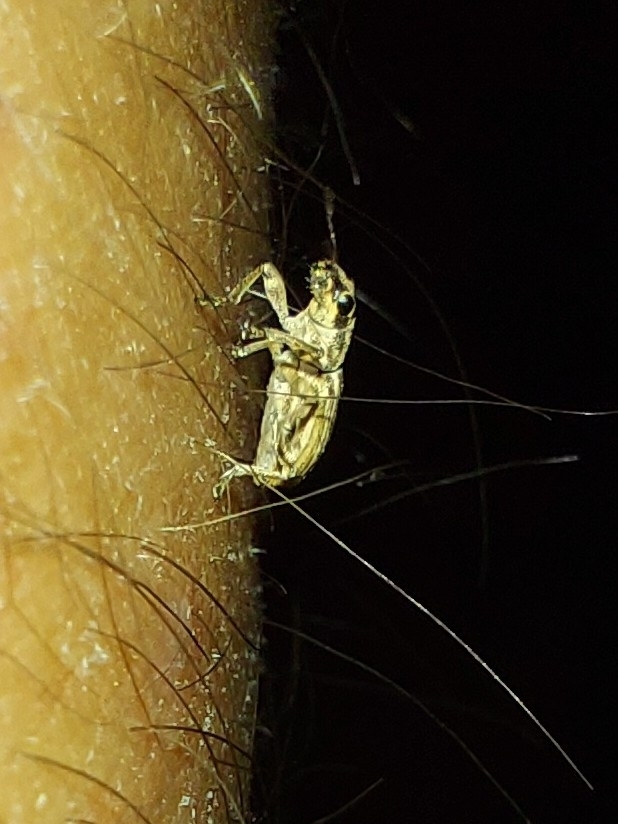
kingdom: Animalia
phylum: Arthropoda
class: Insecta
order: Coleoptera
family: Curculionidae
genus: Sitona
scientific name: Sitona discoideus
